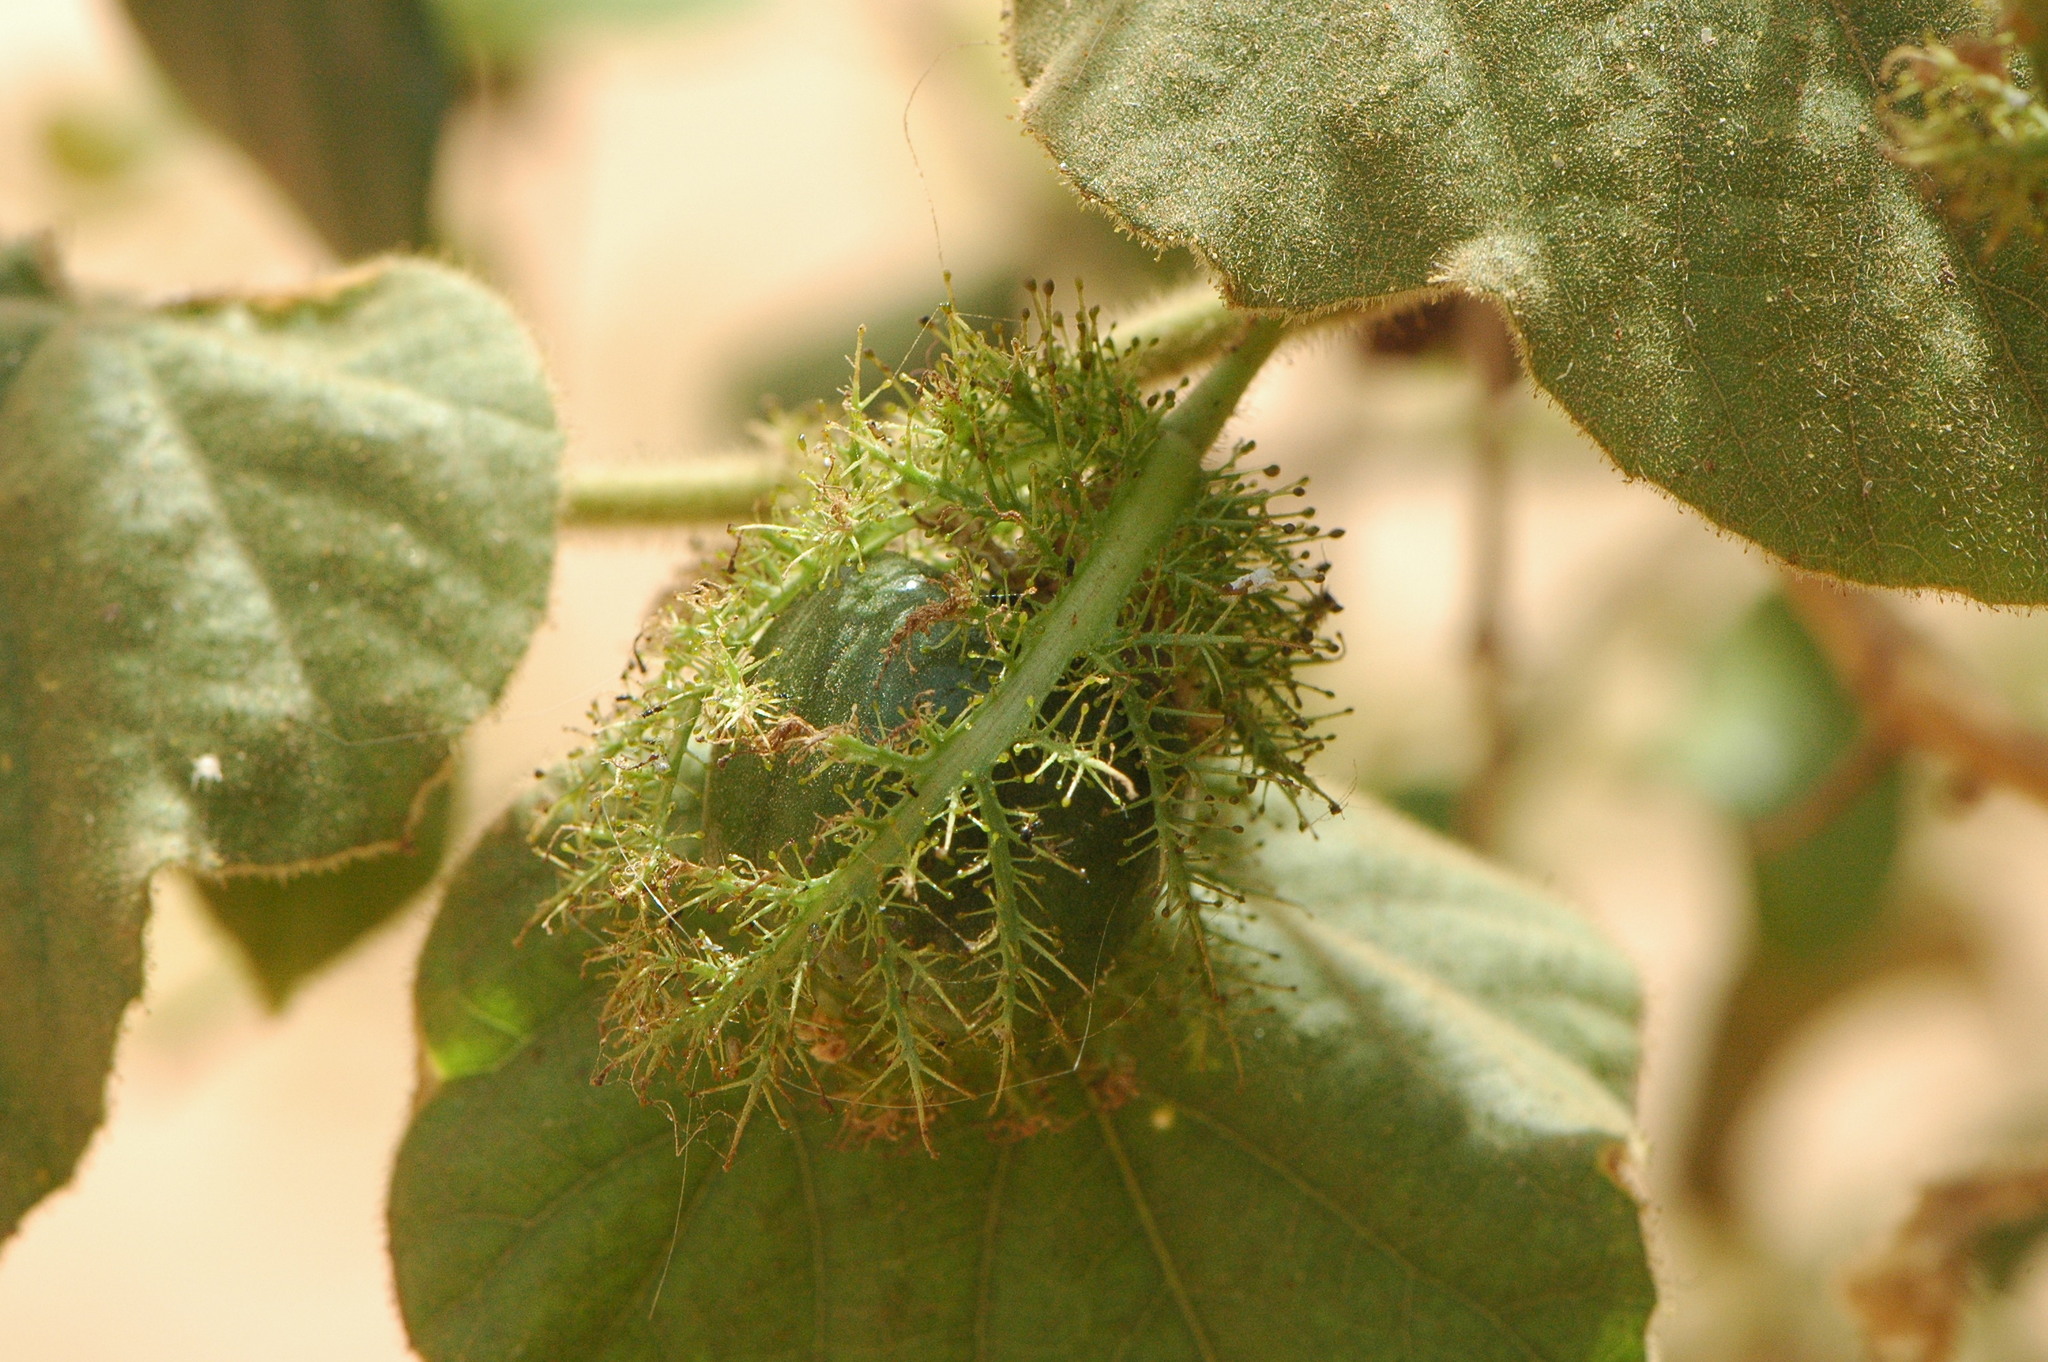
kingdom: Plantae
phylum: Tracheophyta
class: Magnoliopsida
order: Malpighiales
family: Passifloraceae
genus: Passiflora
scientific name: Passiflora foetida
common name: Fetid passionflower
